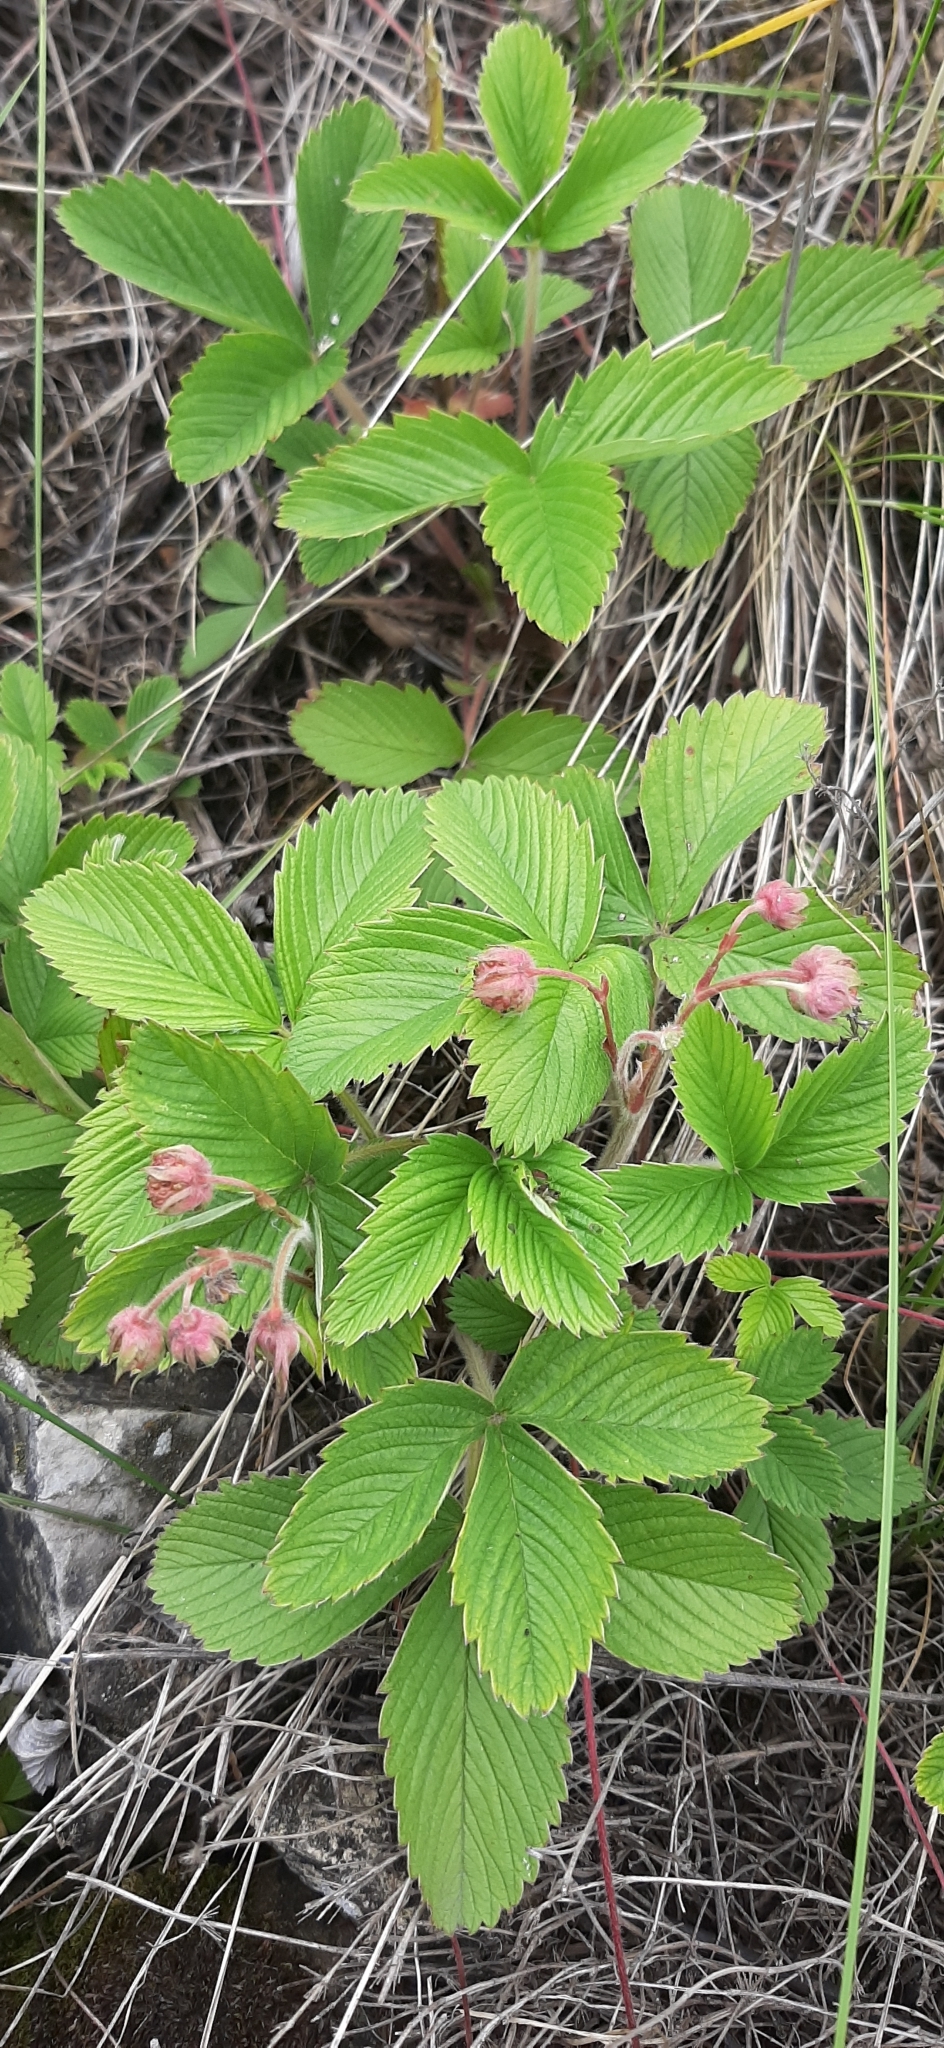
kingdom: Plantae
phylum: Tracheophyta
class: Magnoliopsida
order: Rosales
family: Rosaceae
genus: Fragaria
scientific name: Fragaria viridis
